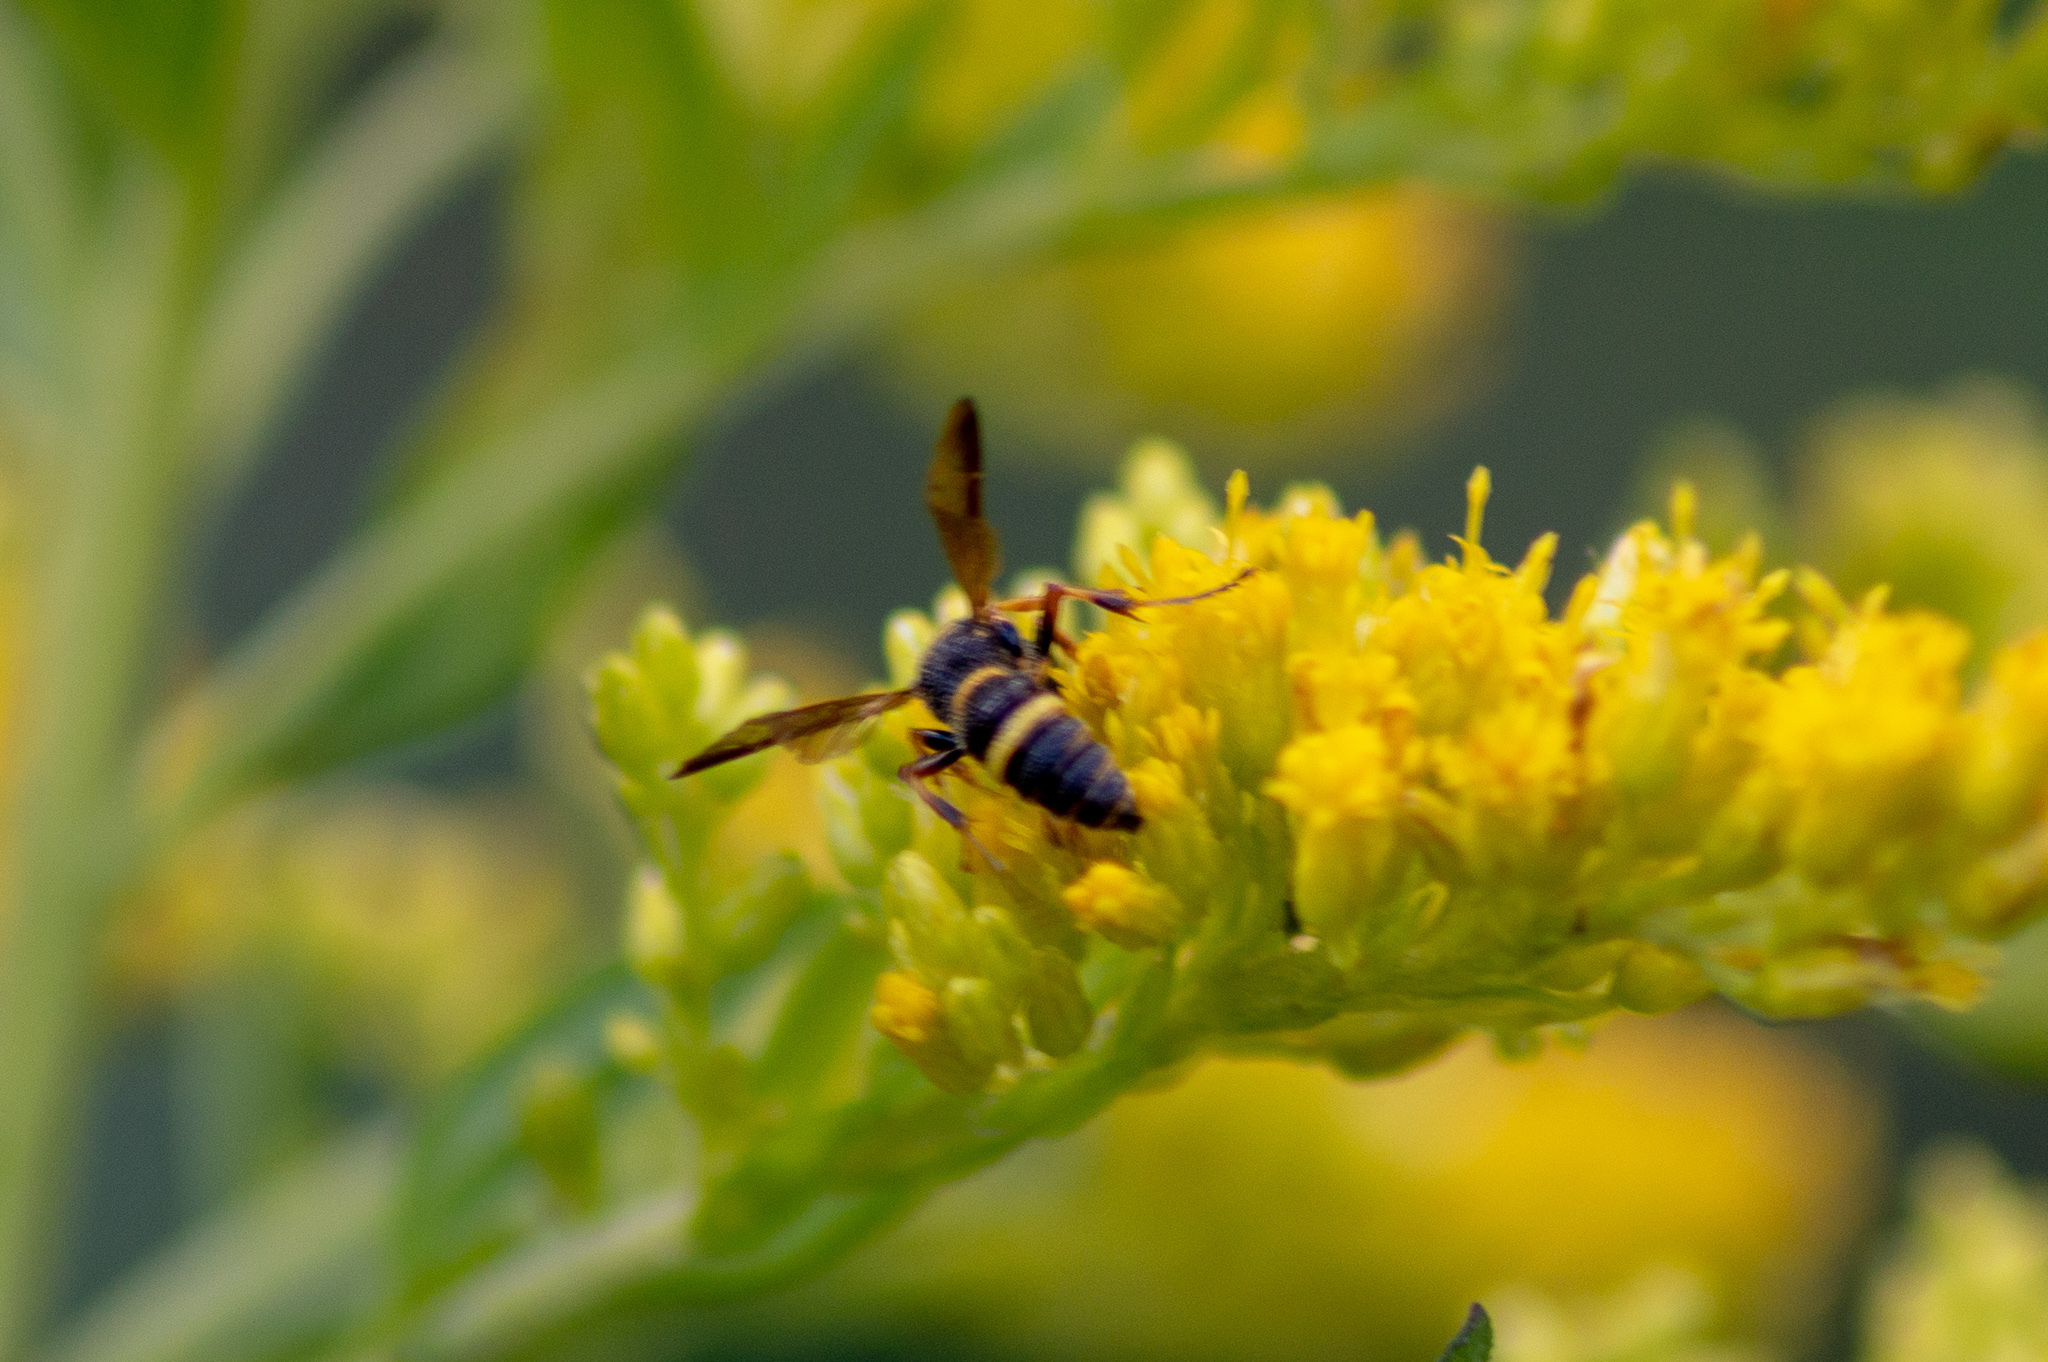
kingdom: Animalia
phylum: Arthropoda
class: Insecta
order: Hymenoptera
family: Crabronidae
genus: Cerceris
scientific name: Cerceris insolita
